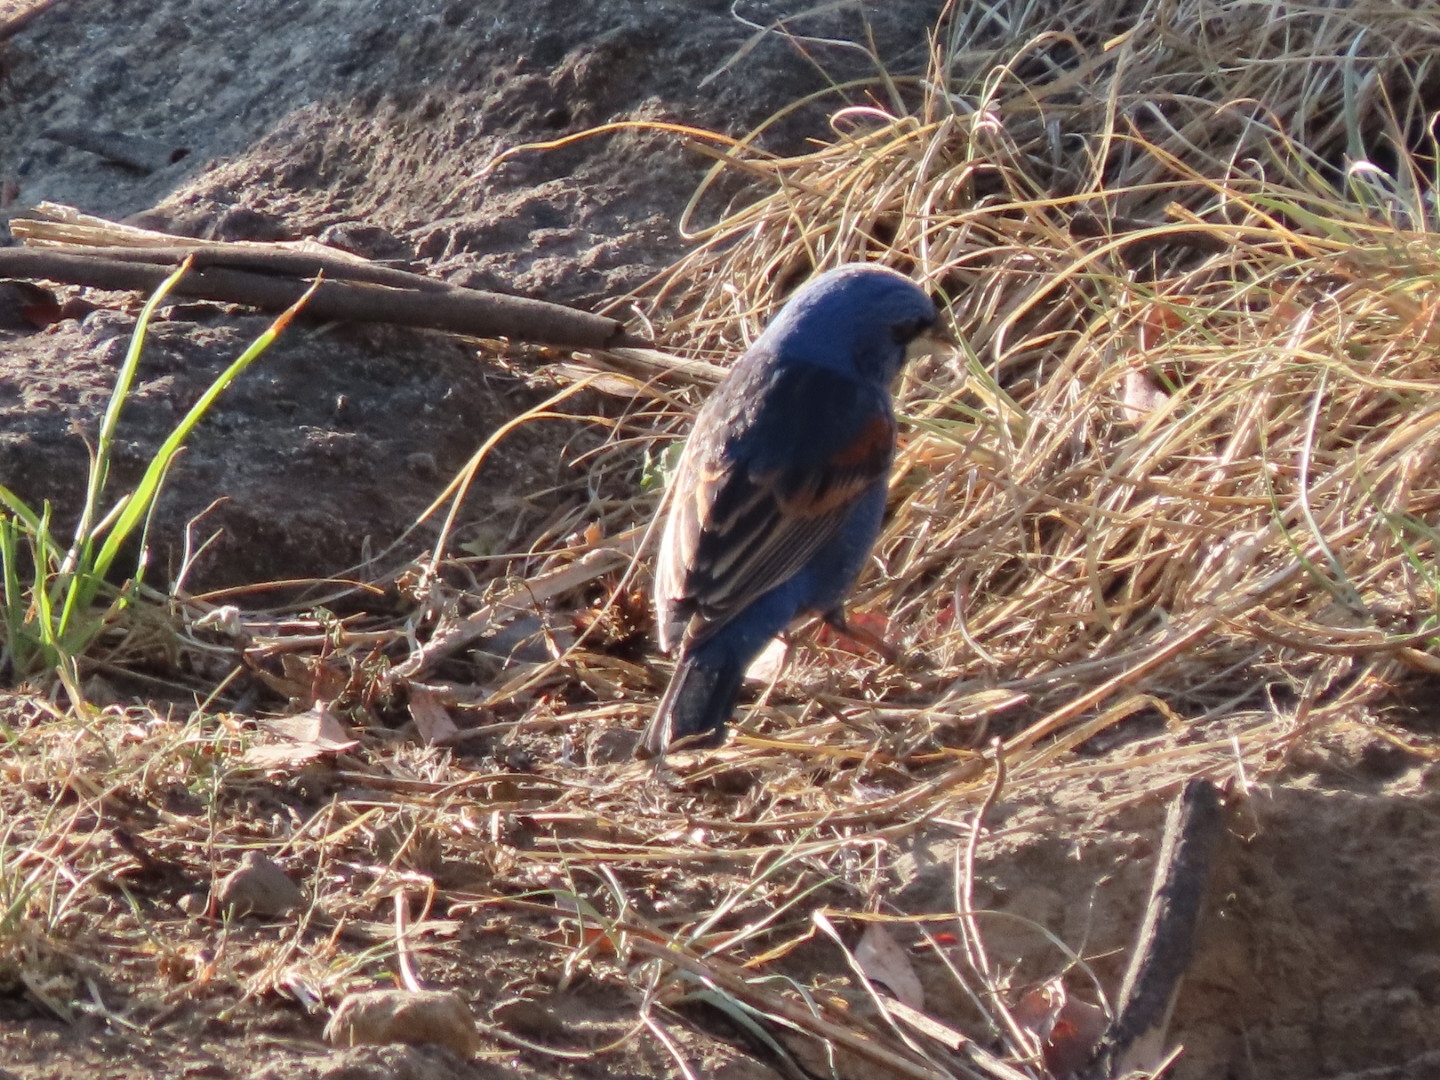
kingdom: Animalia
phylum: Chordata
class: Aves
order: Passeriformes
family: Cardinalidae
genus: Passerina
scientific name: Passerina caerulea
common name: Blue grosbeak
